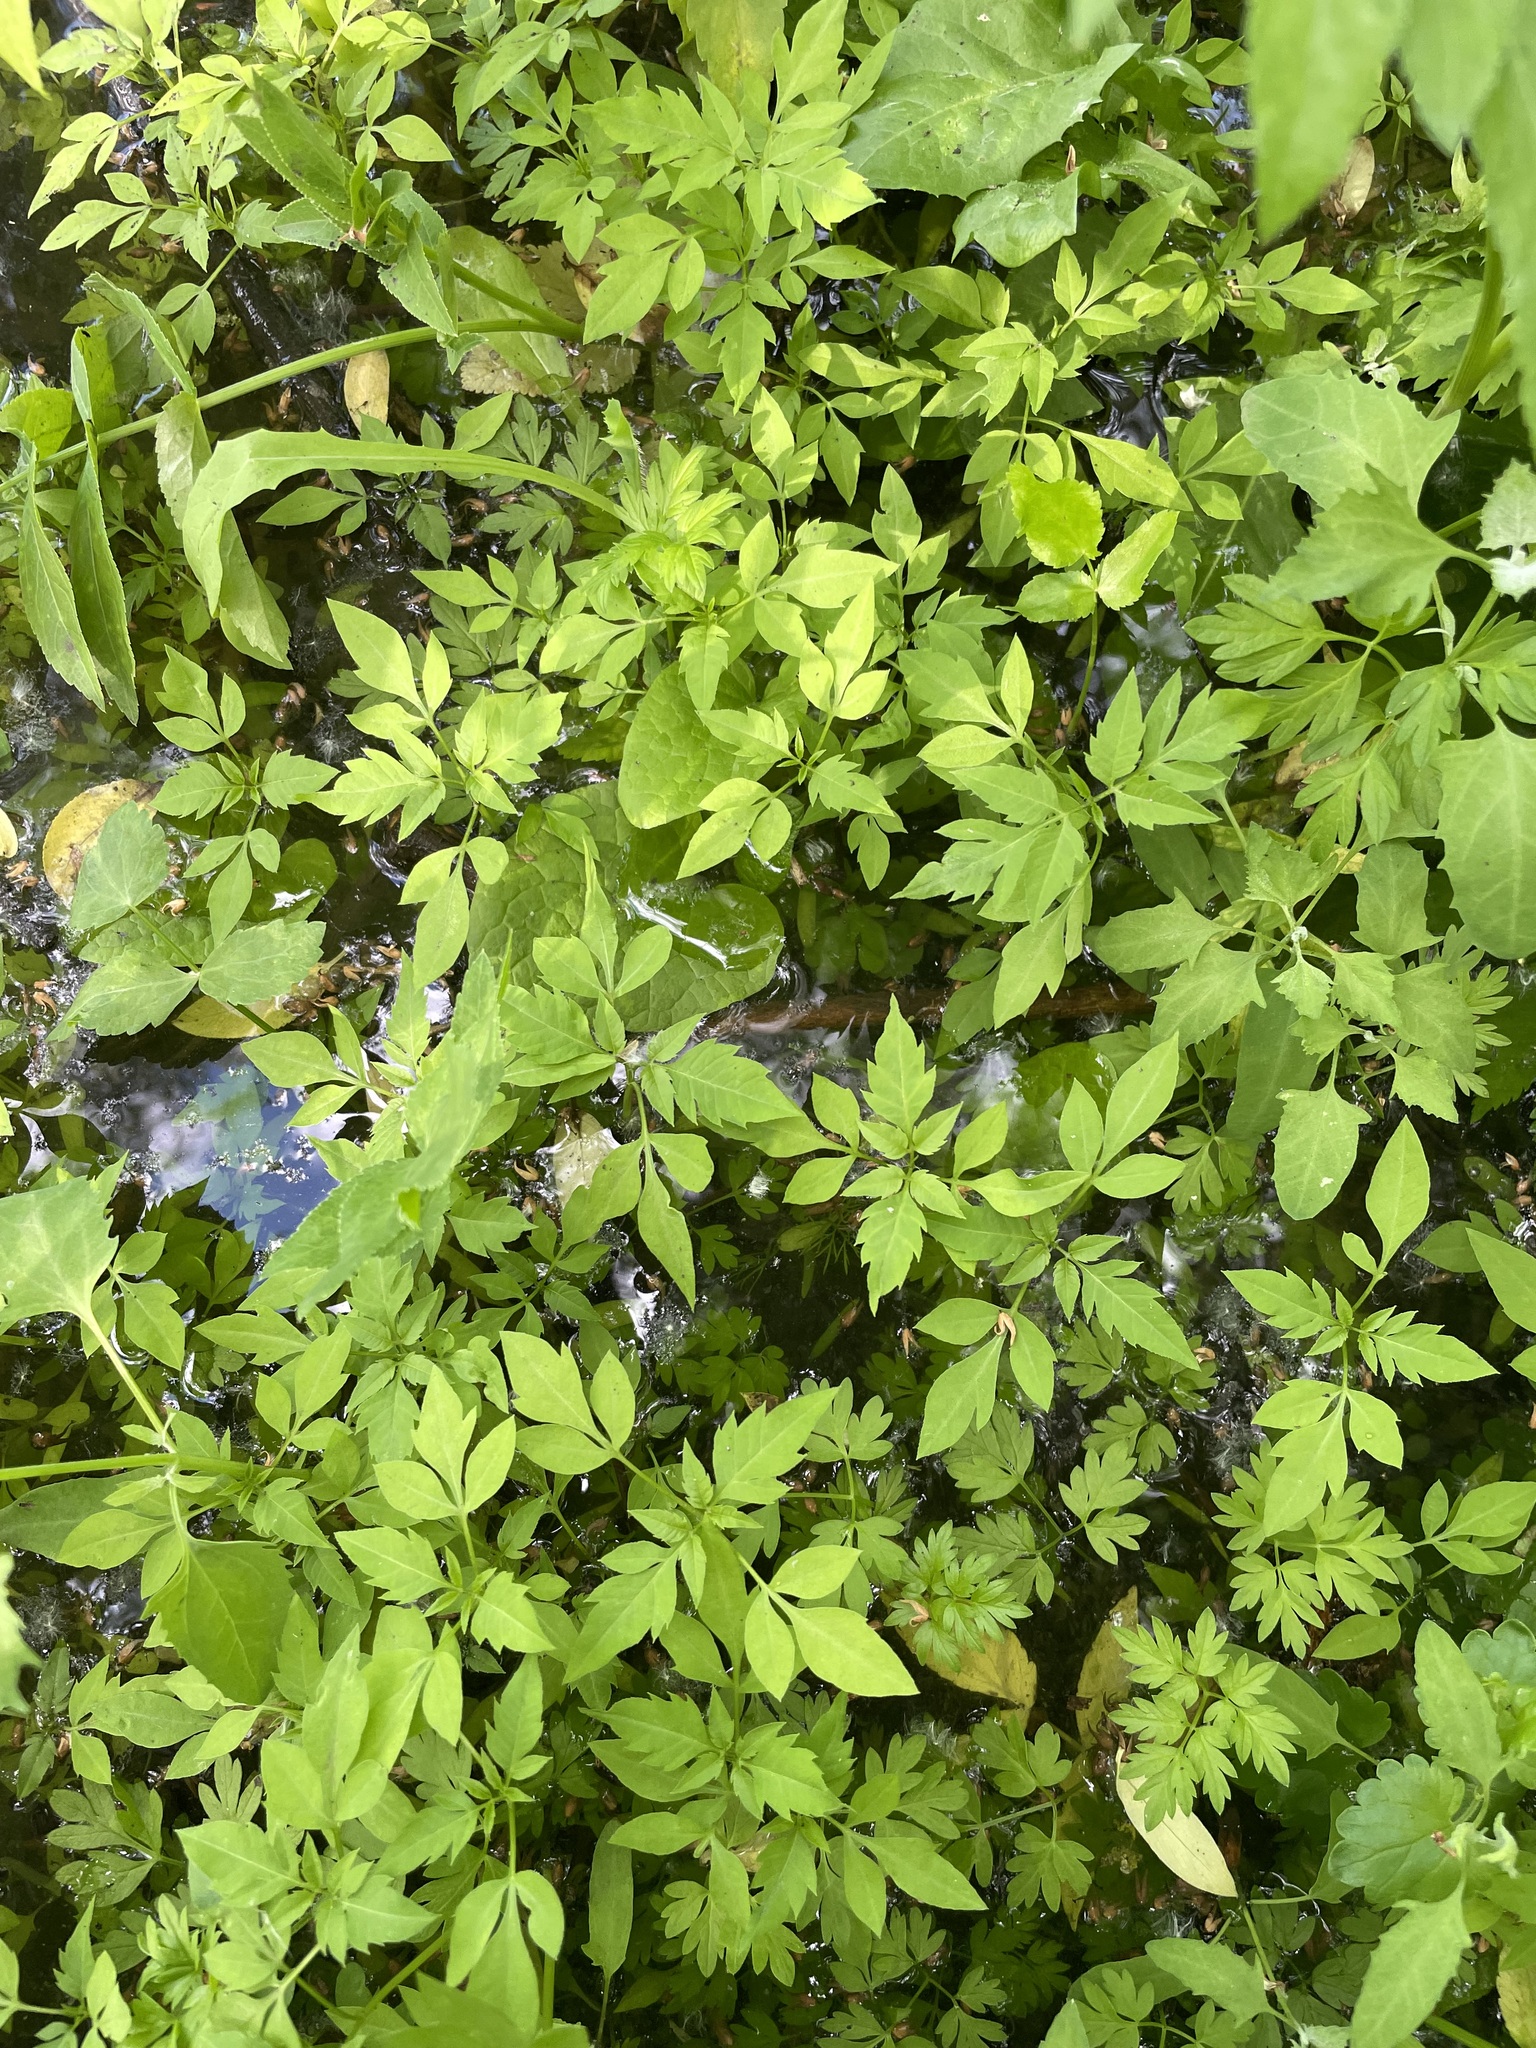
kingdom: Plantae
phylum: Tracheophyta
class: Magnoliopsida
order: Asterales
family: Asteraceae
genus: Bidens
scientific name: Bidens frondosa
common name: Beggarticks
